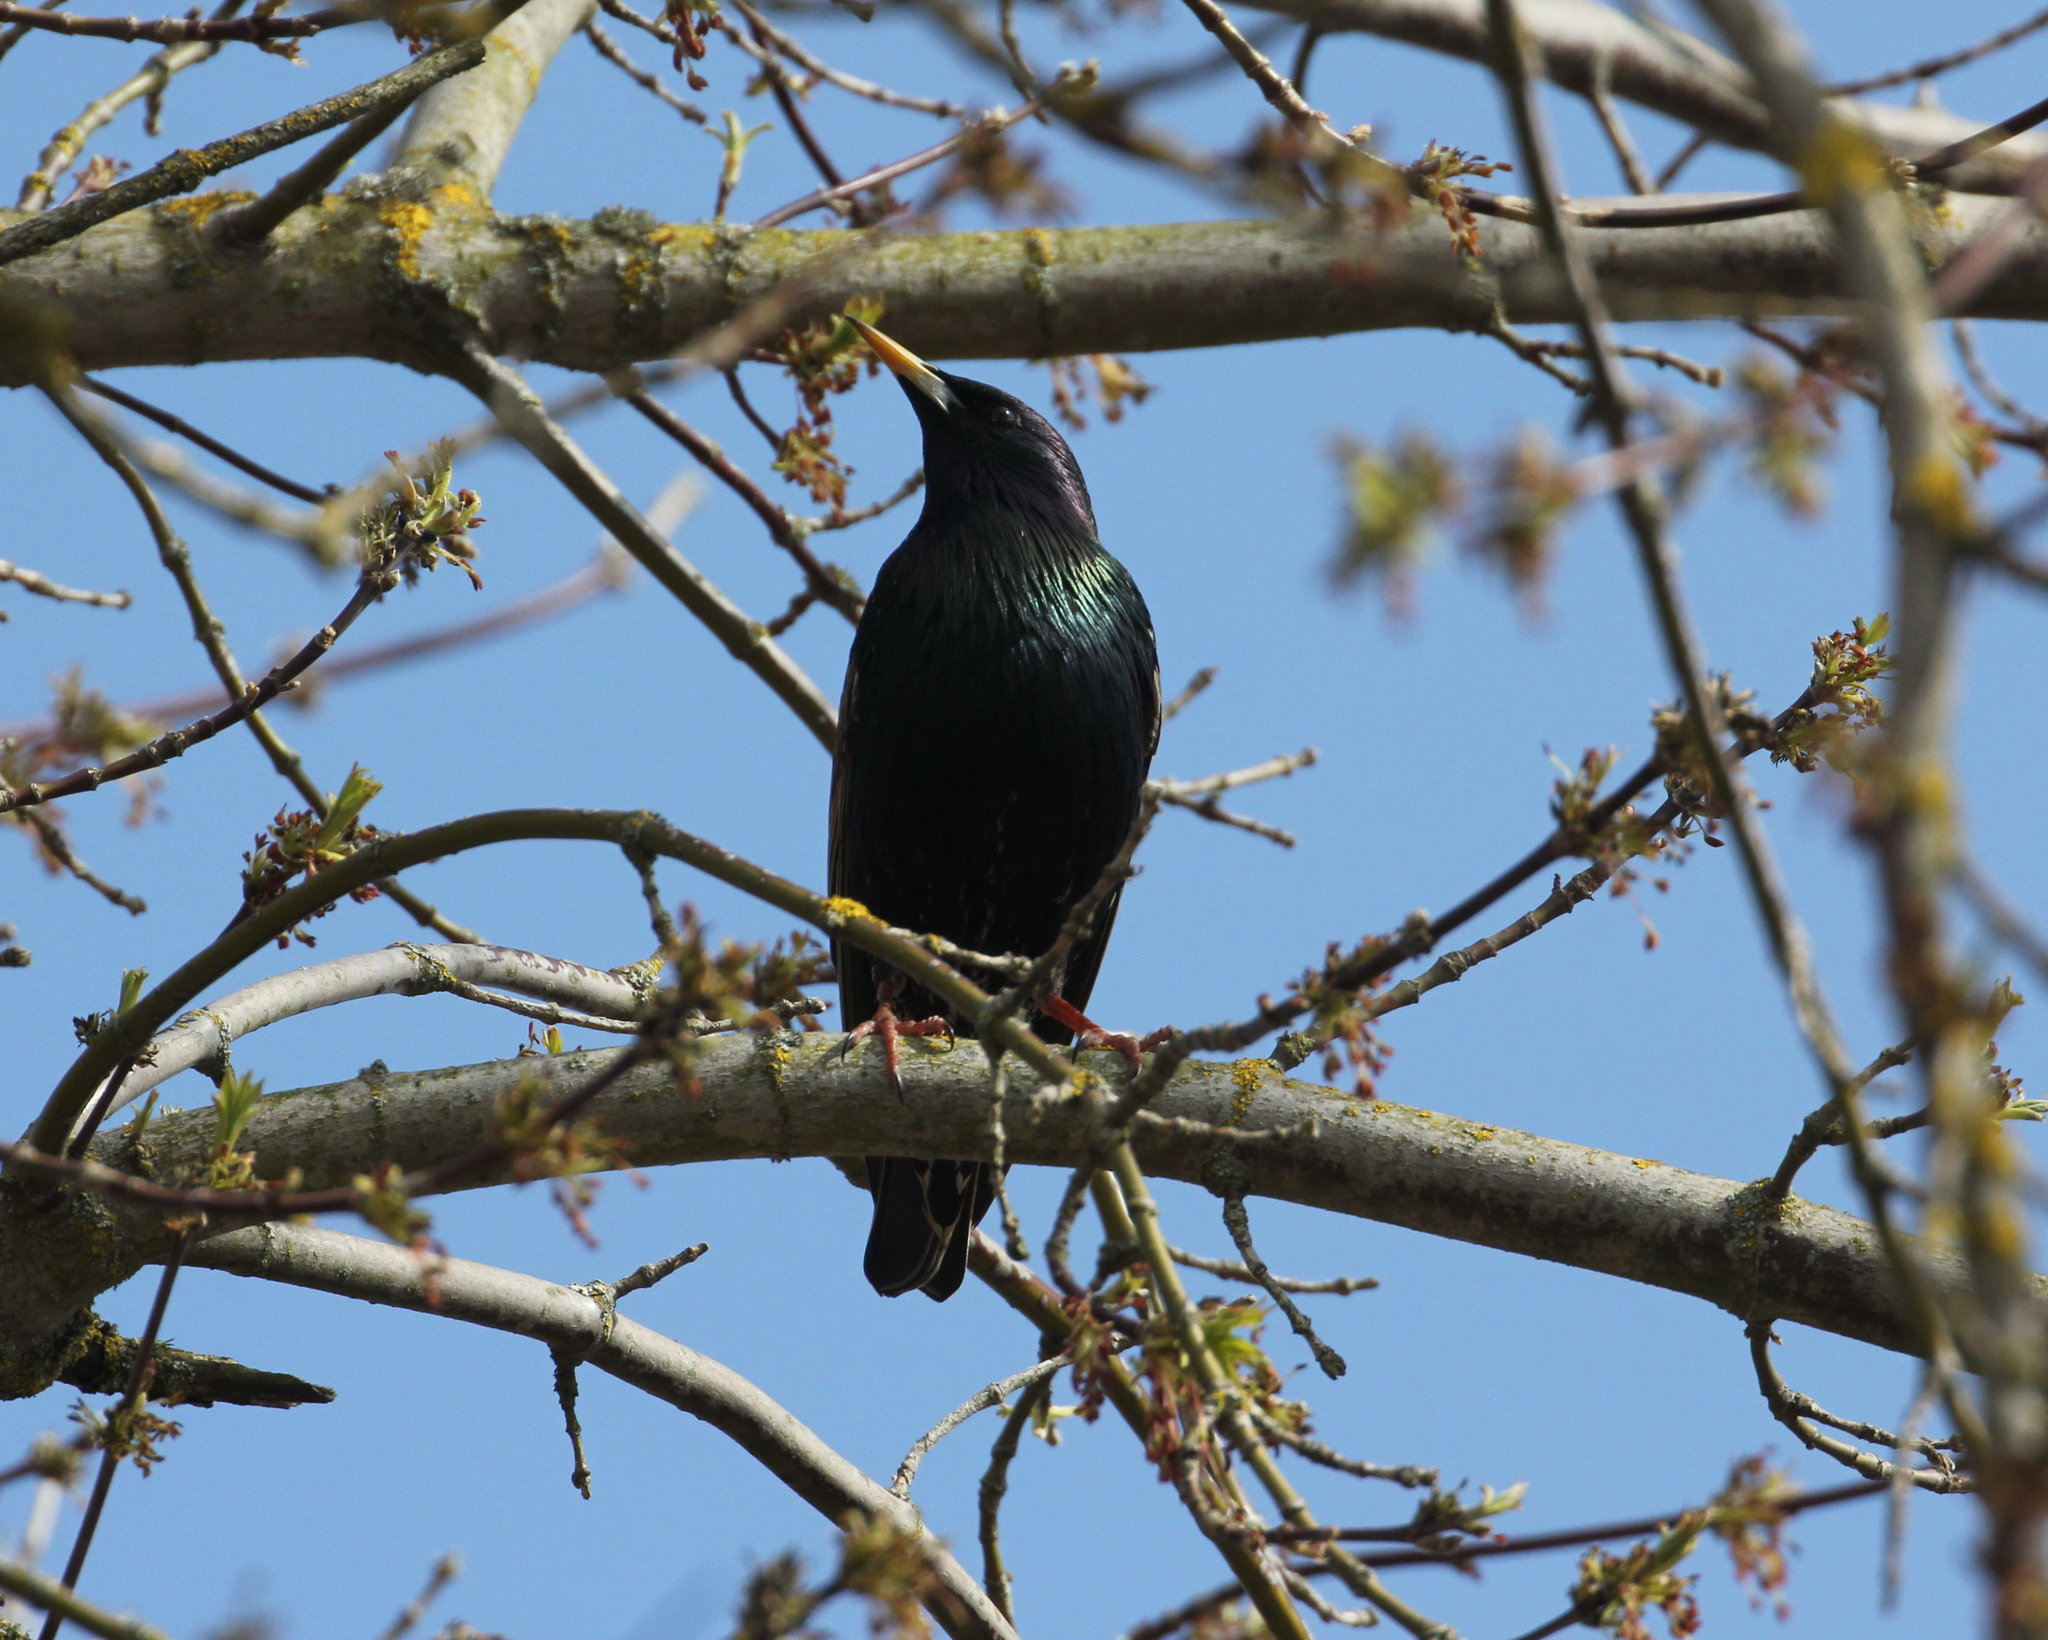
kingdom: Animalia
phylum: Chordata
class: Aves
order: Passeriformes
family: Sturnidae
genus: Sturnus
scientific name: Sturnus vulgaris
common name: Common starling
